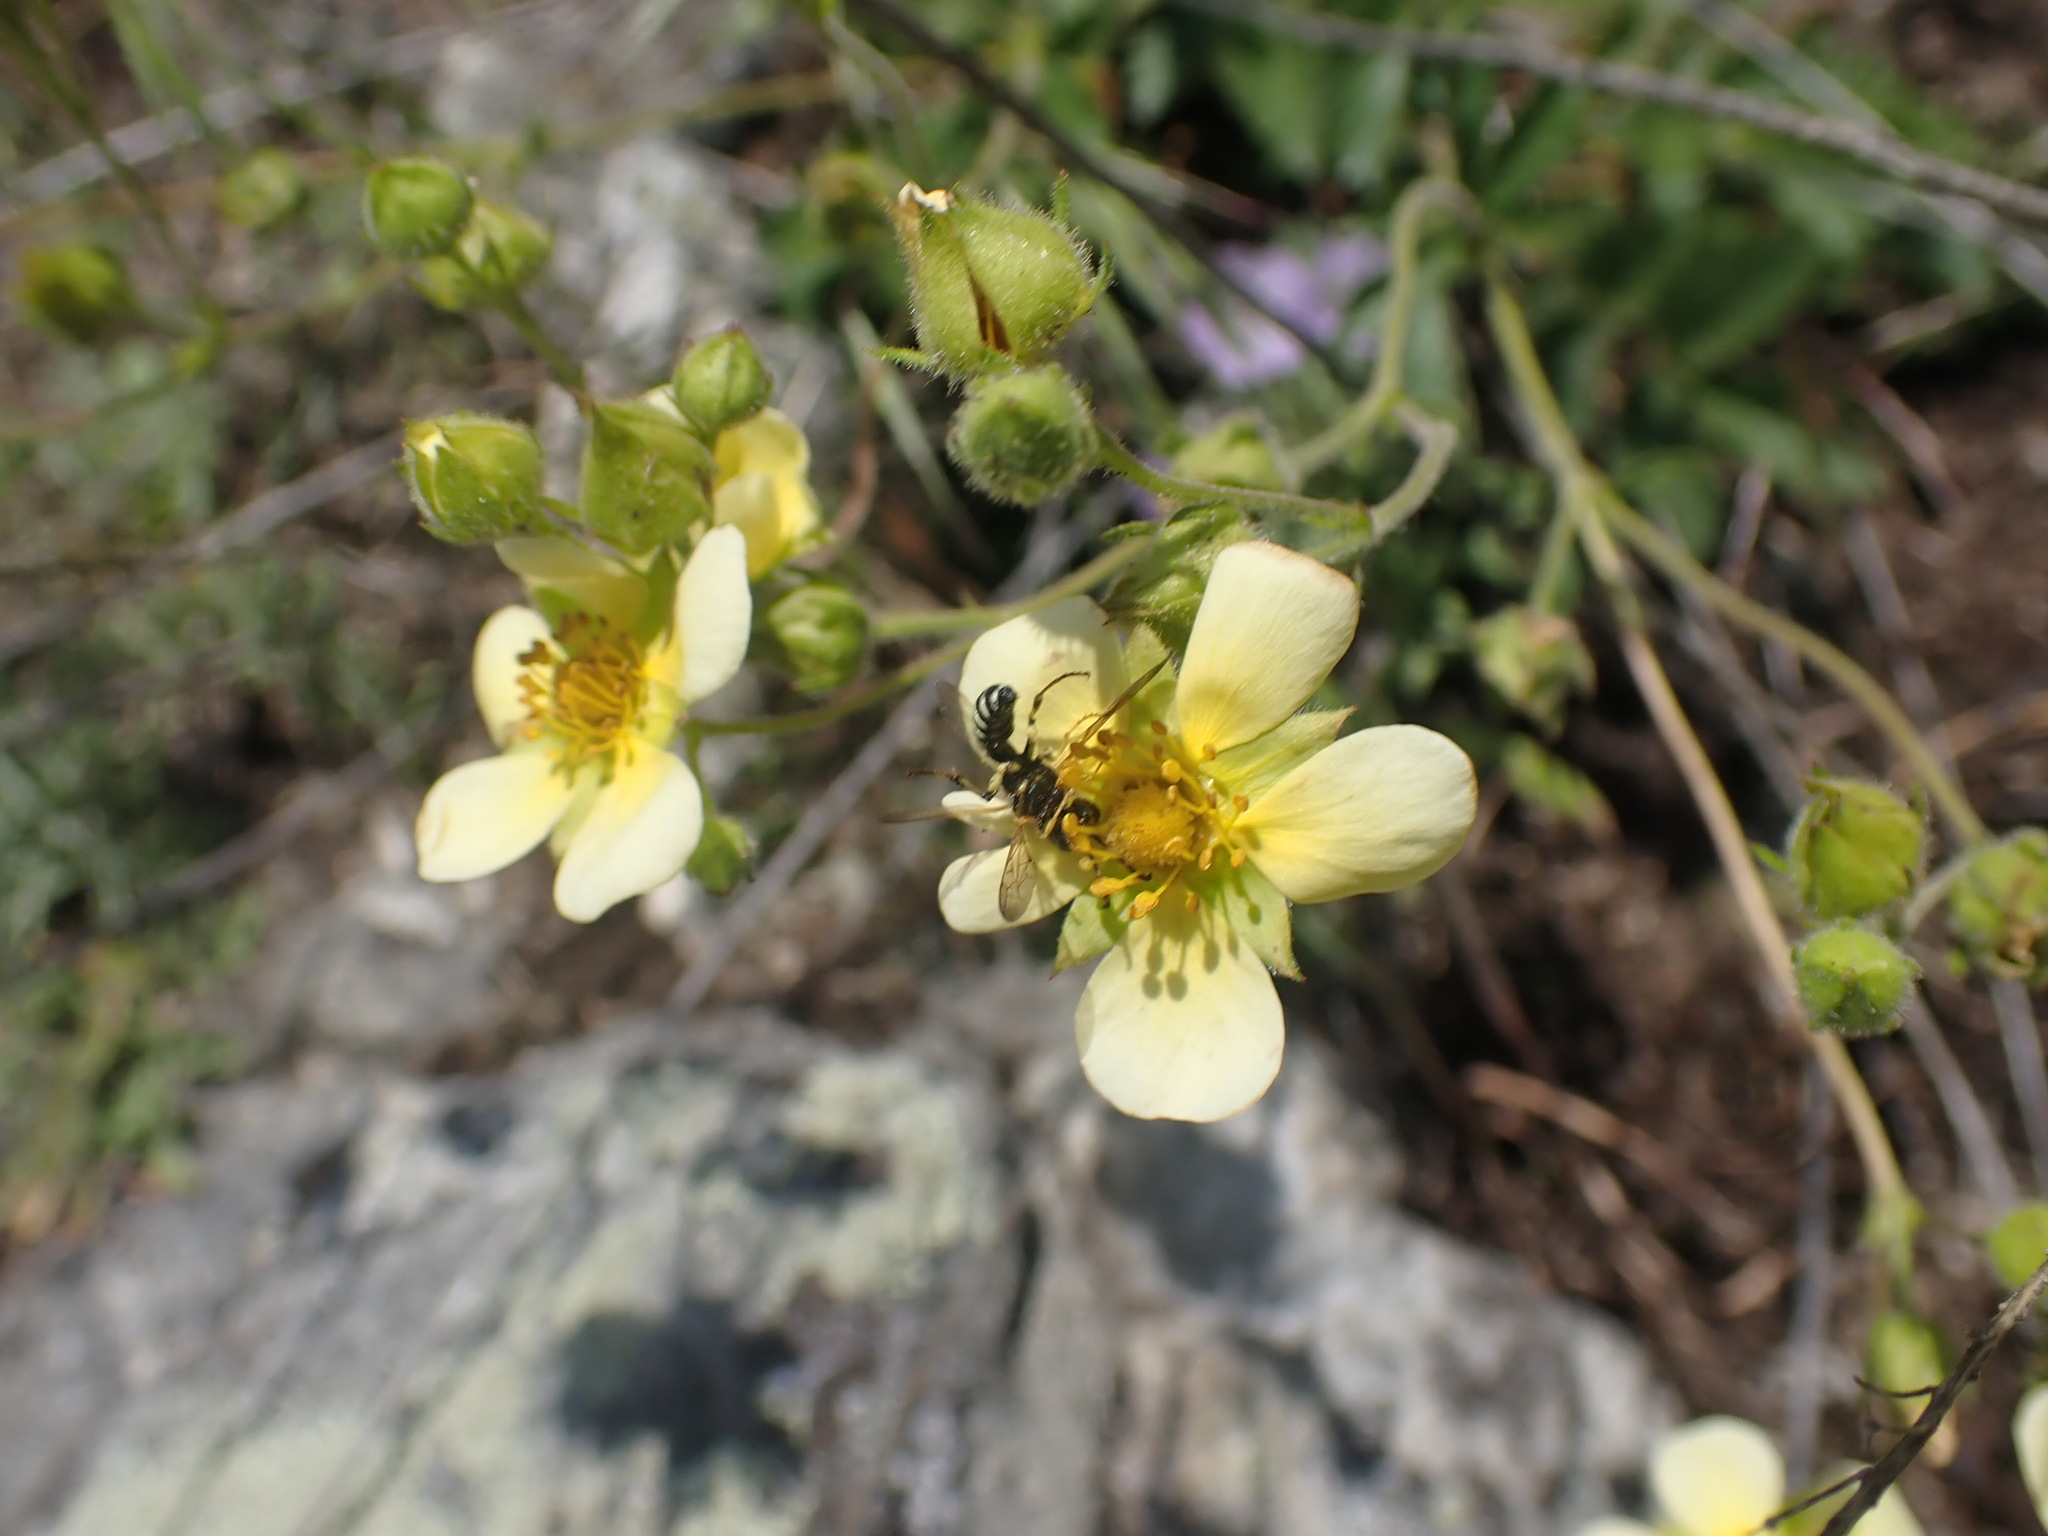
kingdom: Plantae
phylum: Tracheophyta
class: Magnoliopsida
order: Rosales
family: Rosaceae
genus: Drymocallis
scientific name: Drymocallis convallaria
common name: Cream cinquefoil
